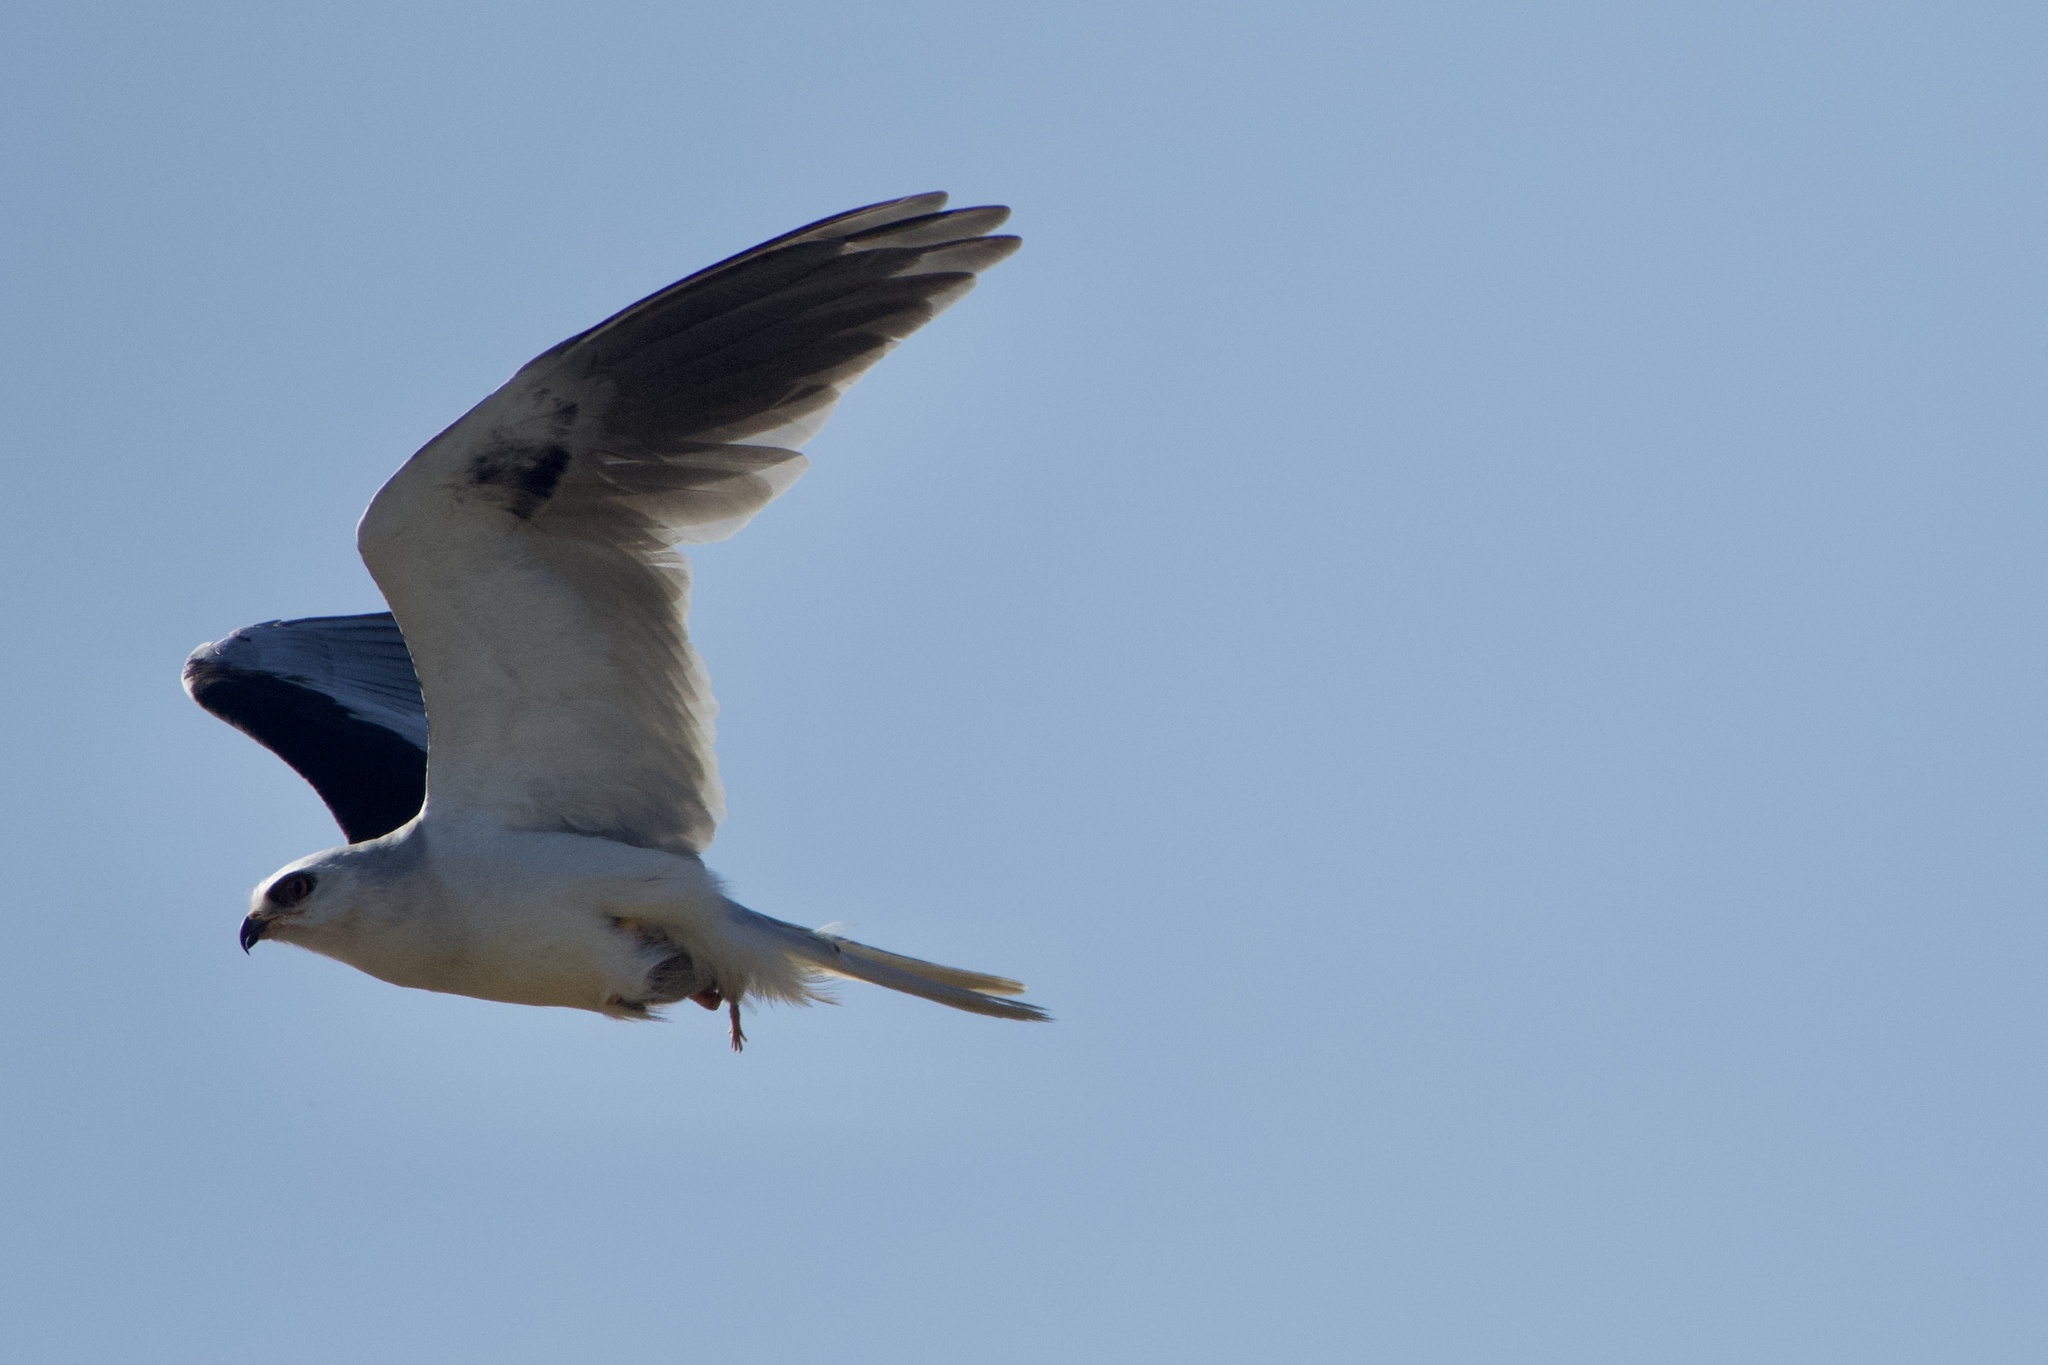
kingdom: Animalia
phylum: Chordata
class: Aves
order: Accipitriformes
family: Accipitridae
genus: Elanus
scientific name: Elanus leucurus
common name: White-tailed kite
